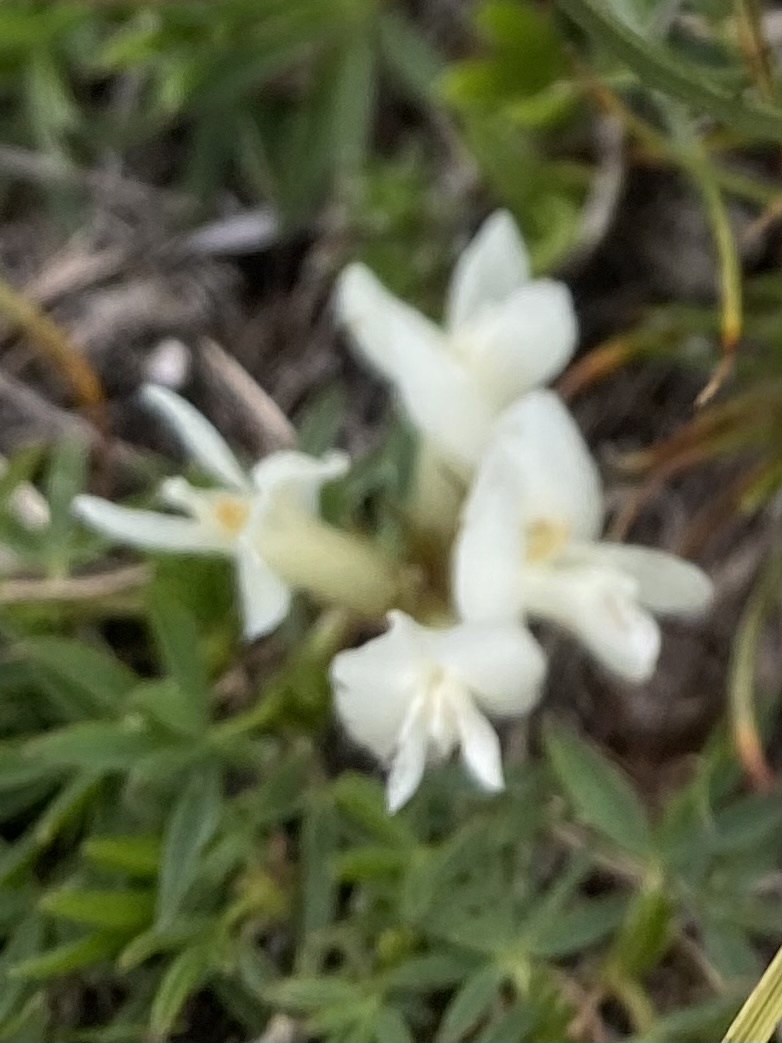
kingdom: Plantae
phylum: Tracheophyta
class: Magnoliopsida
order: Fabales
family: Fabaceae
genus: Trifolium
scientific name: Trifolium polyphyllum
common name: Many-leaf clover
